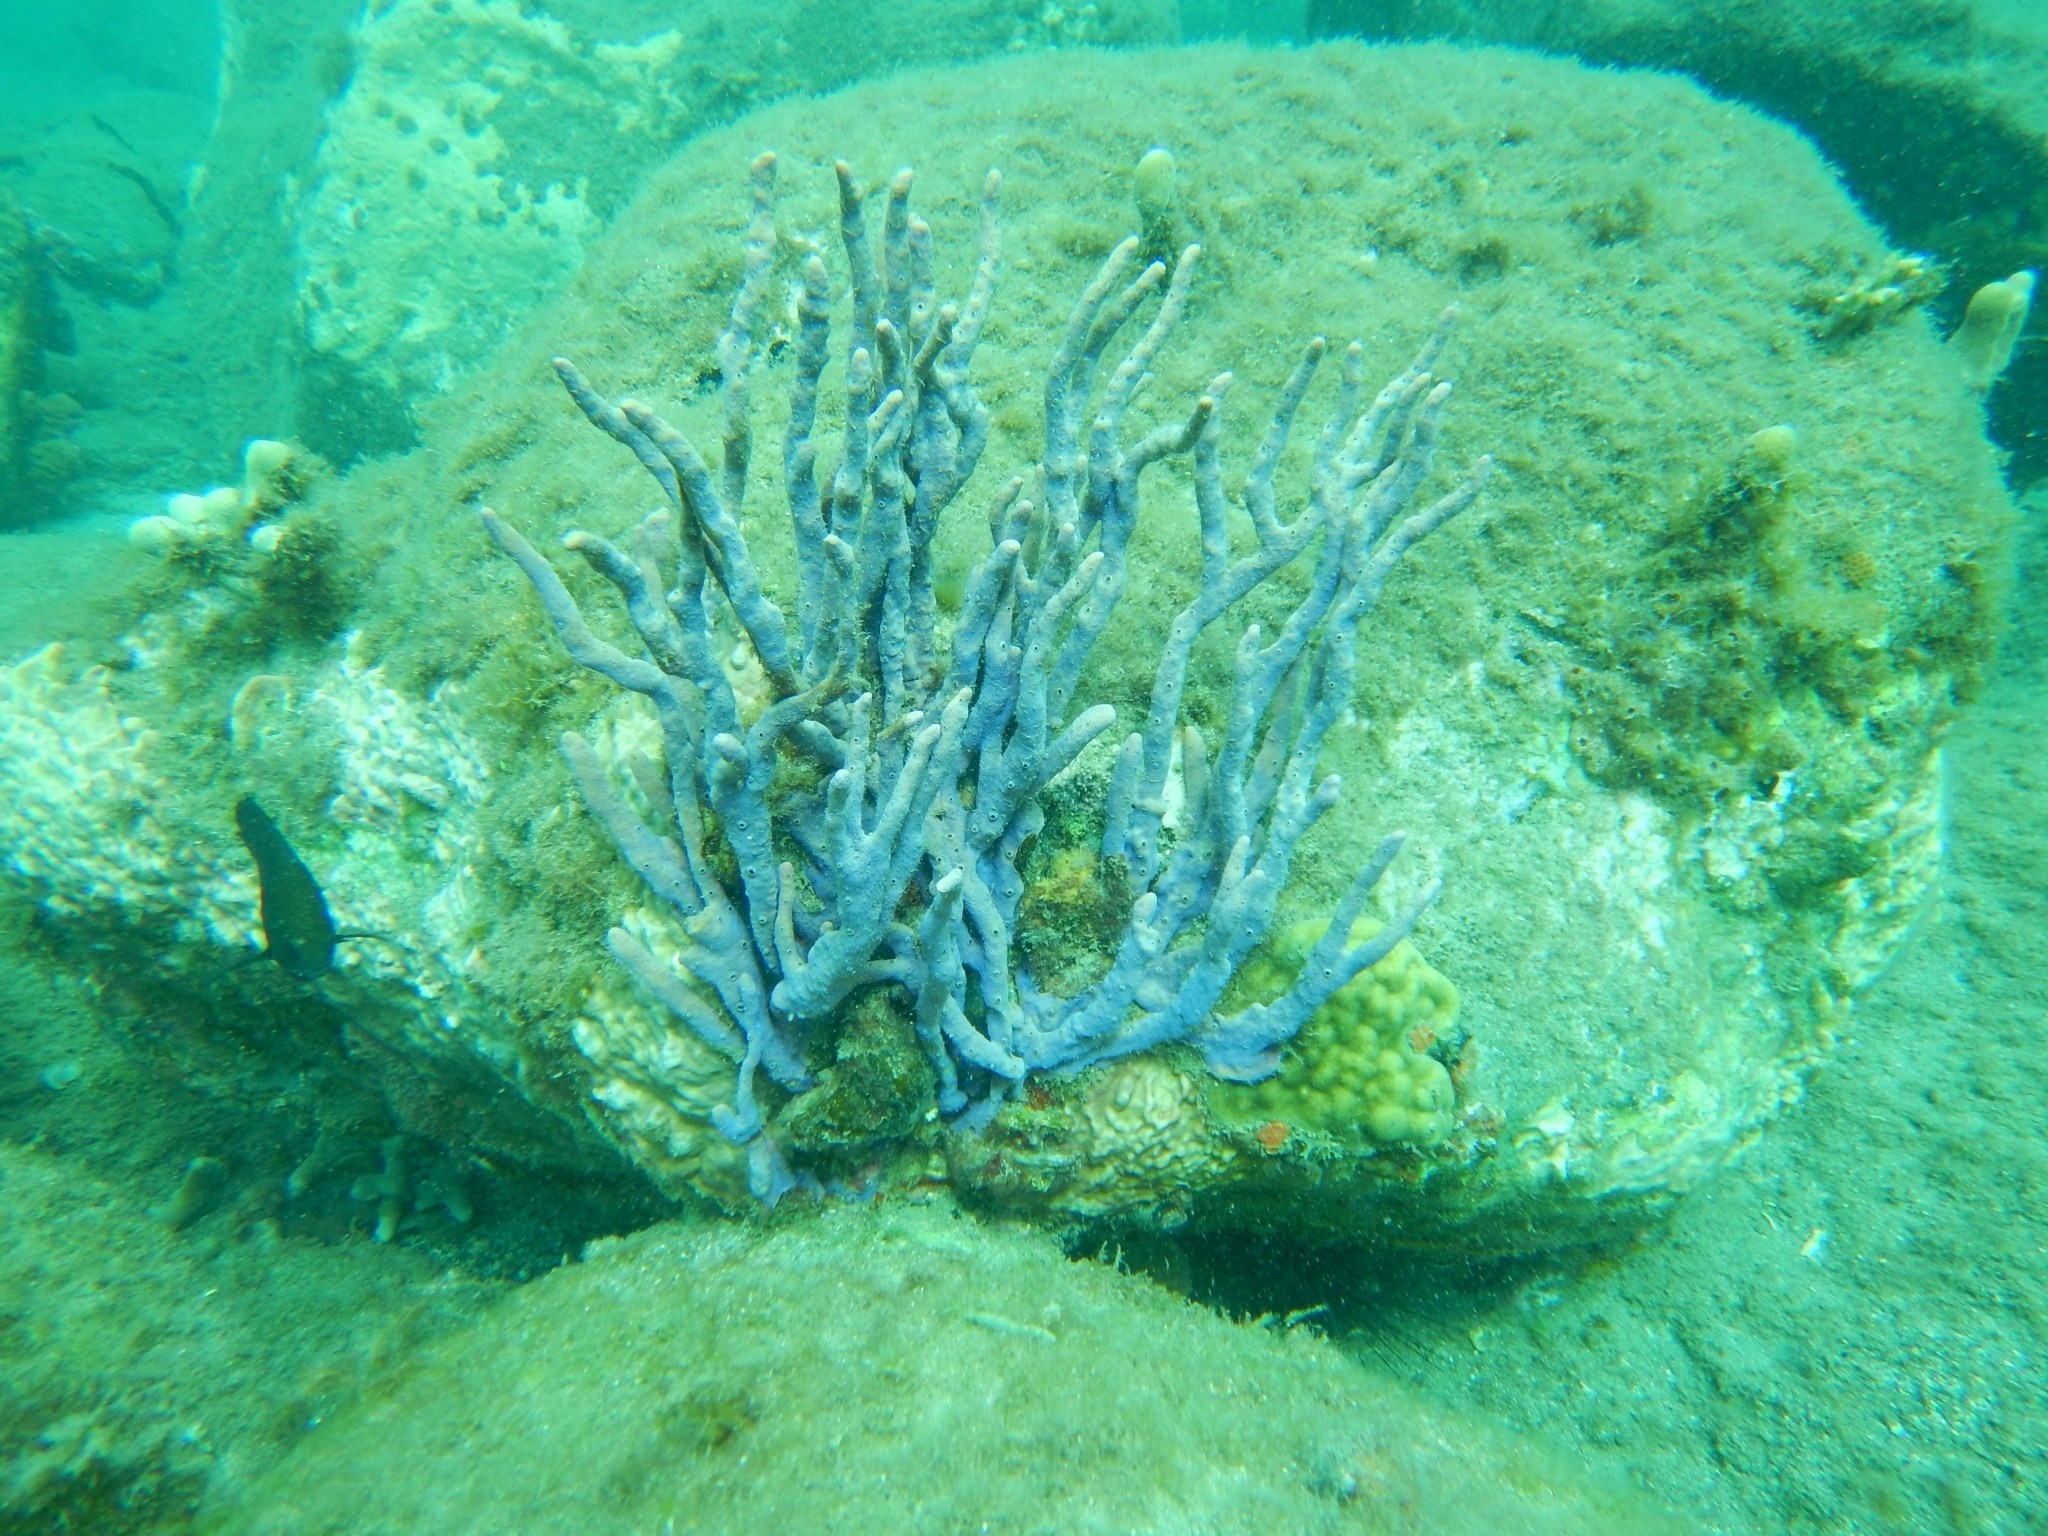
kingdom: Animalia
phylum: Porifera
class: Demospongiae
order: Verongiida
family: Aplysinidae
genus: Aplysina
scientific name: Aplysina cauliformis
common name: Branching candle sponge
